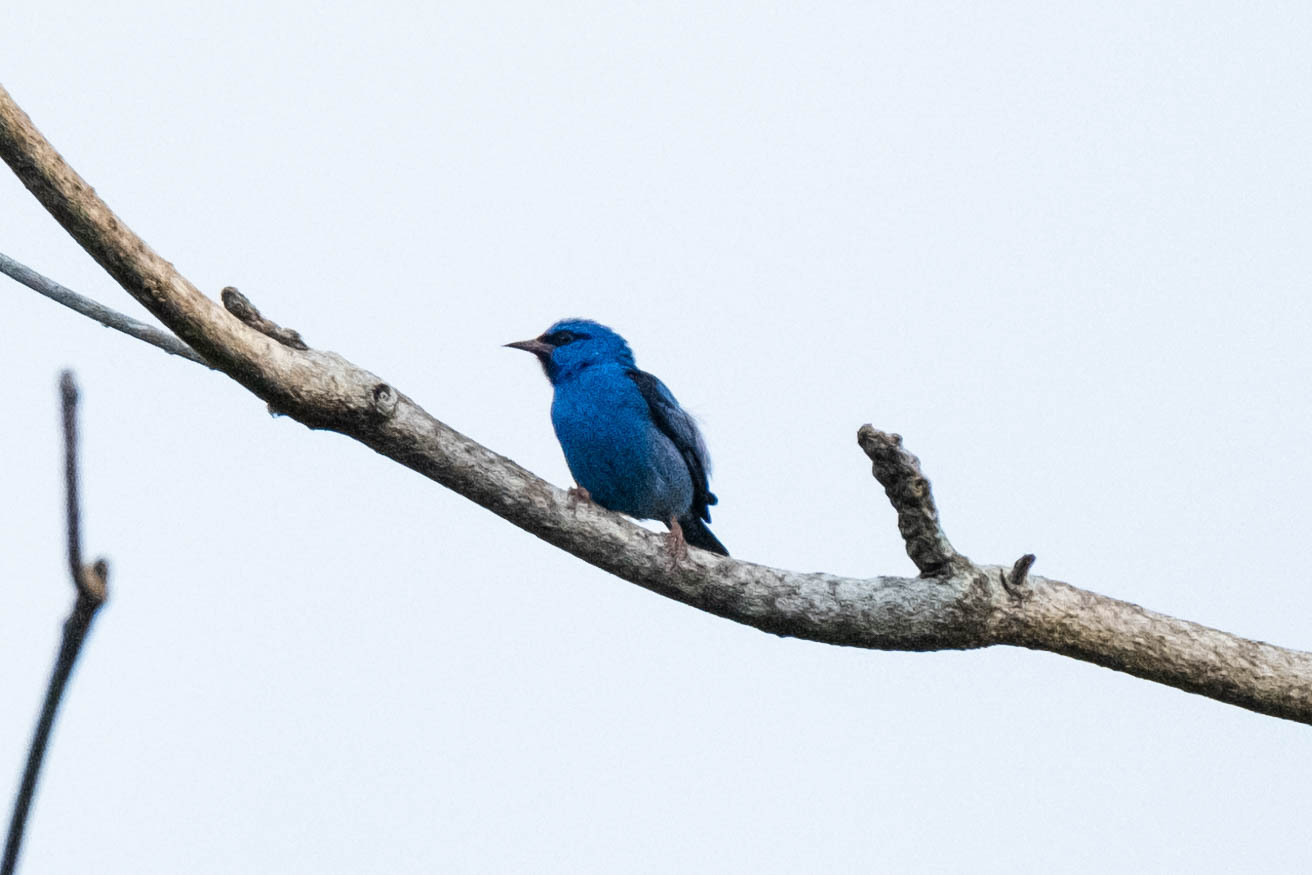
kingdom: Animalia
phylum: Chordata
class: Aves
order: Passeriformes
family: Thraupidae
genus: Dacnis
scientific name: Dacnis cayana
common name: Blue dacnis
